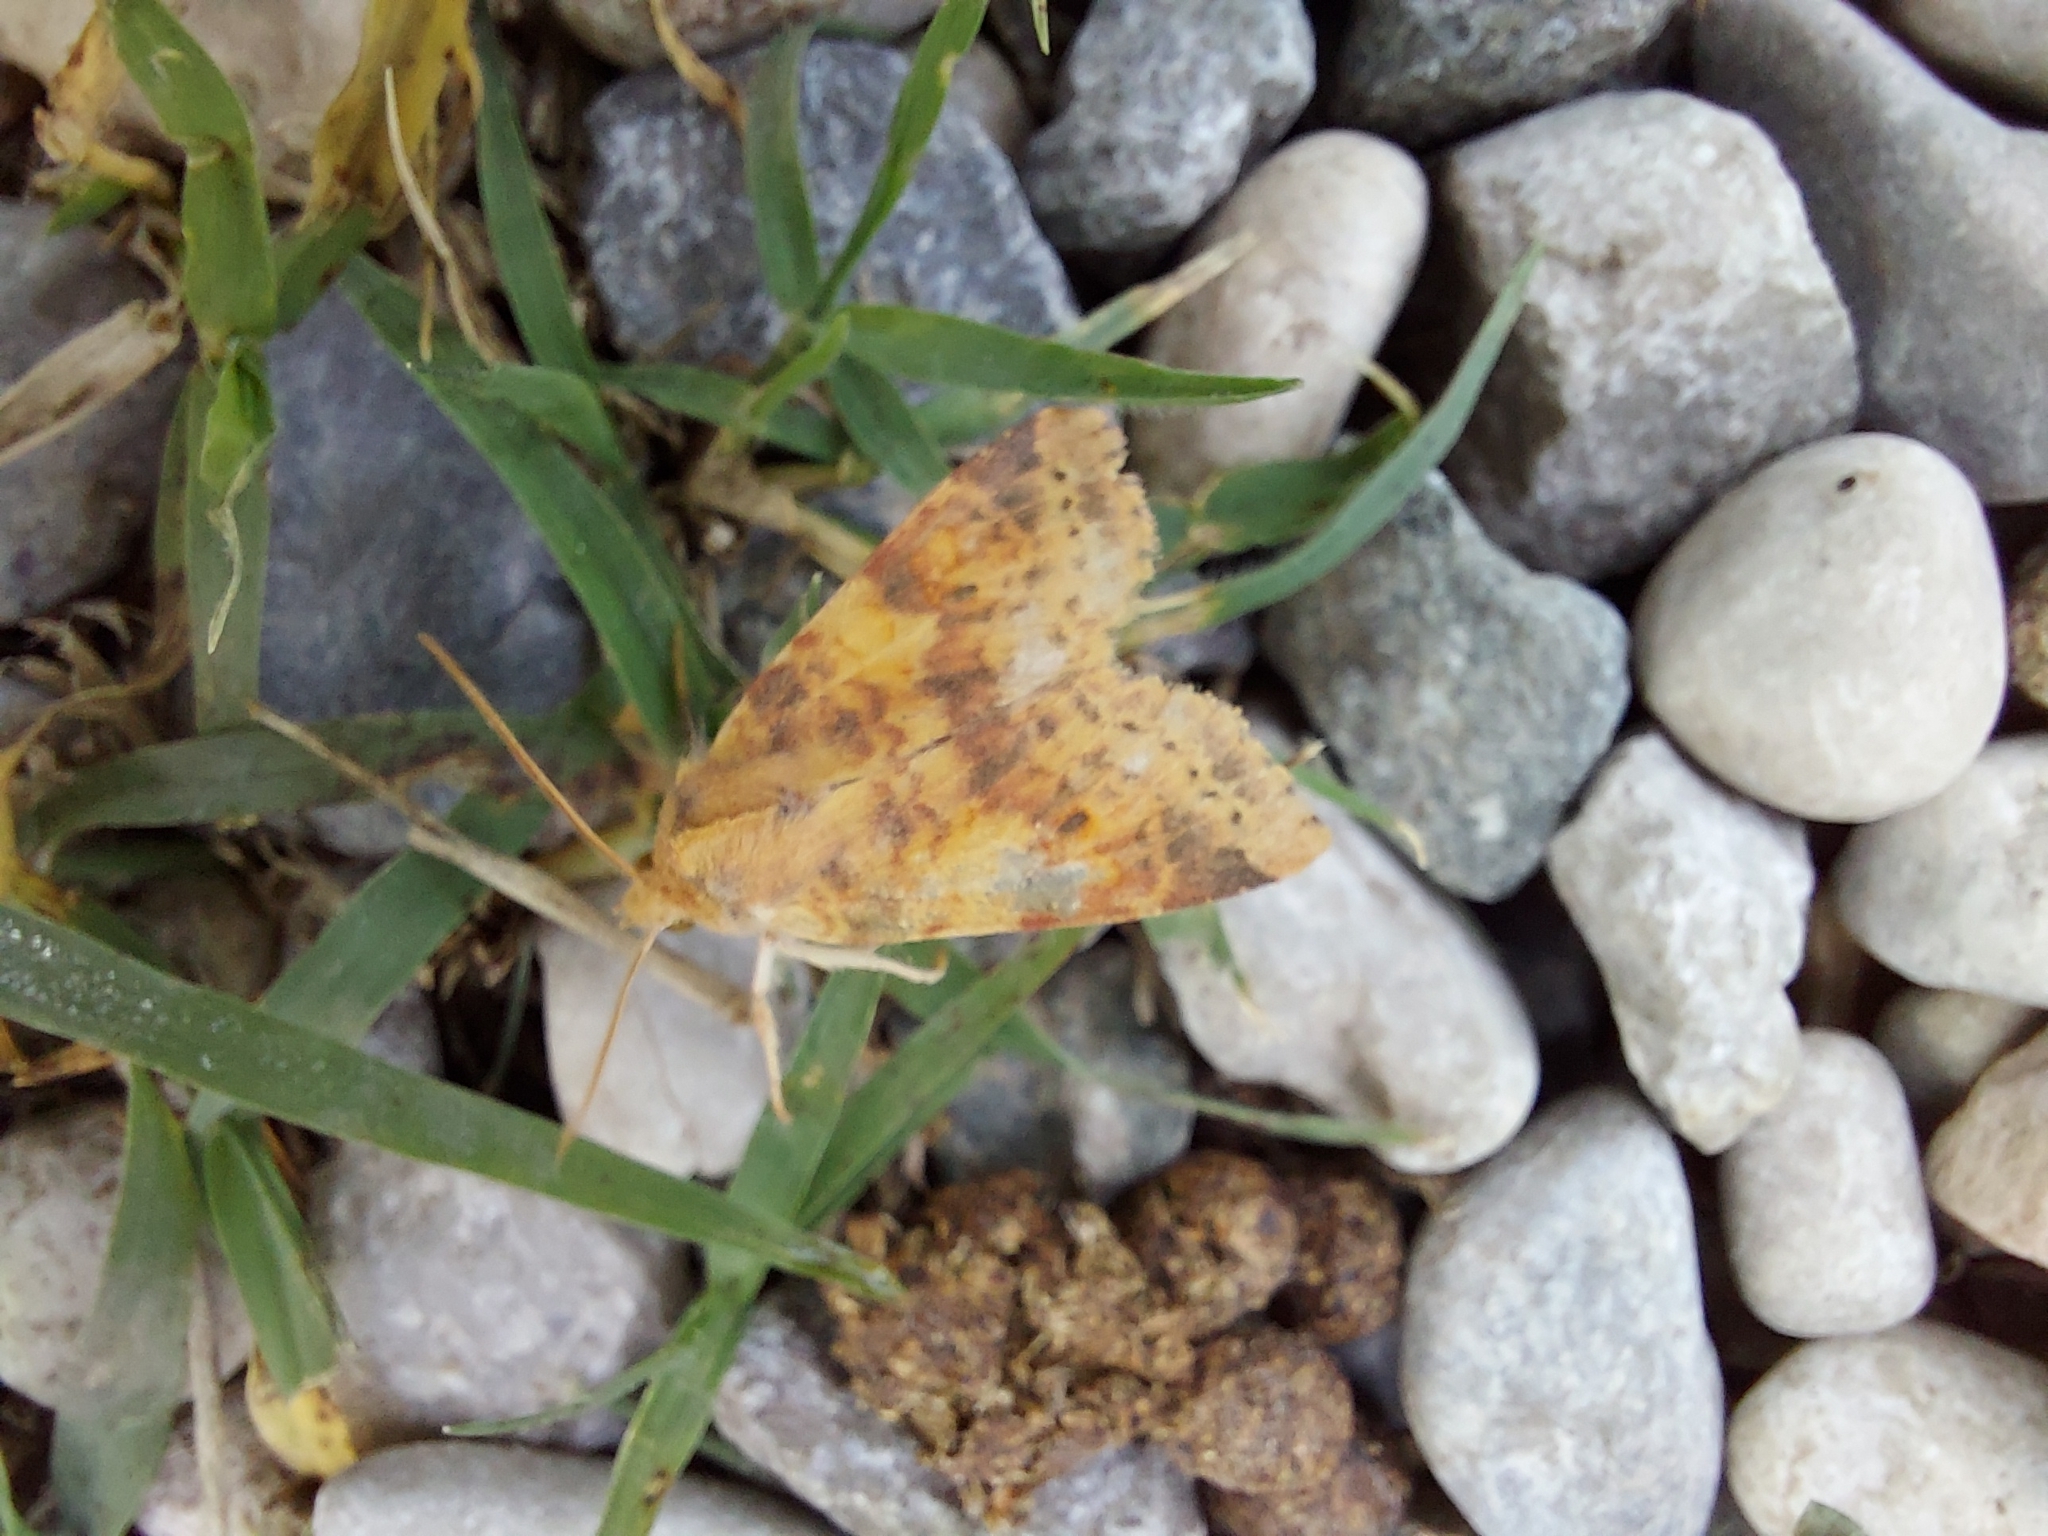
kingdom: Animalia
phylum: Arthropoda
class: Insecta
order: Lepidoptera
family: Noctuidae
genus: Xanthia
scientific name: Xanthia ocellaris
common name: Pale-lemon sallow
